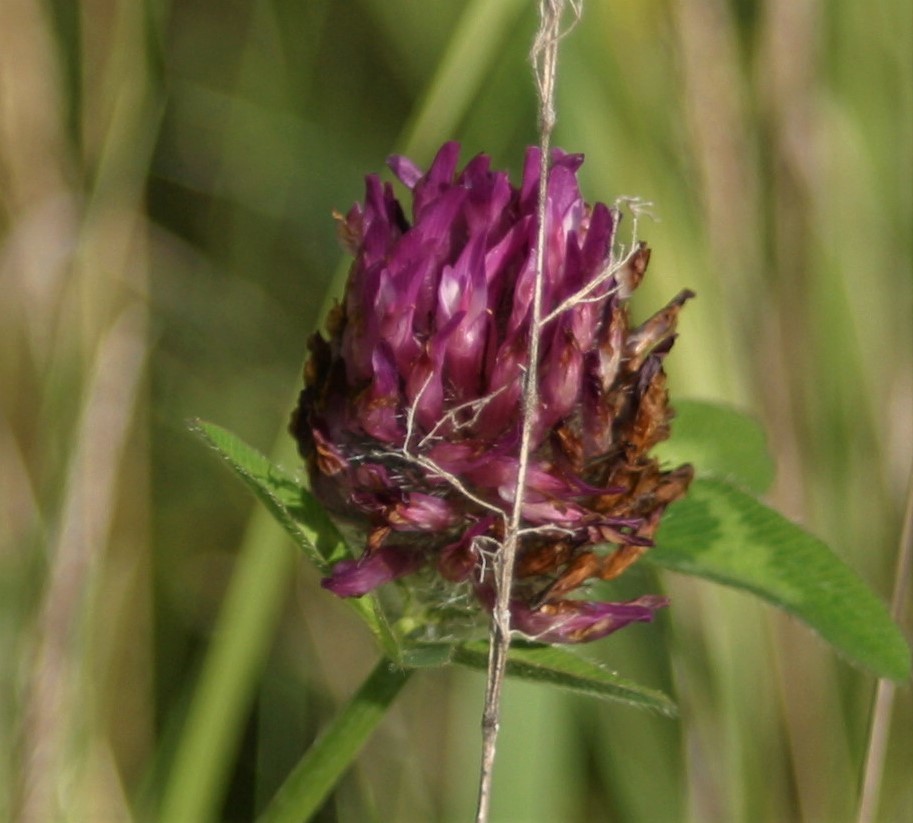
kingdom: Plantae
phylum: Tracheophyta
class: Magnoliopsida
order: Fabales
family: Fabaceae
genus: Trifolium
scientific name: Trifolium pratense
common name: Red clover
